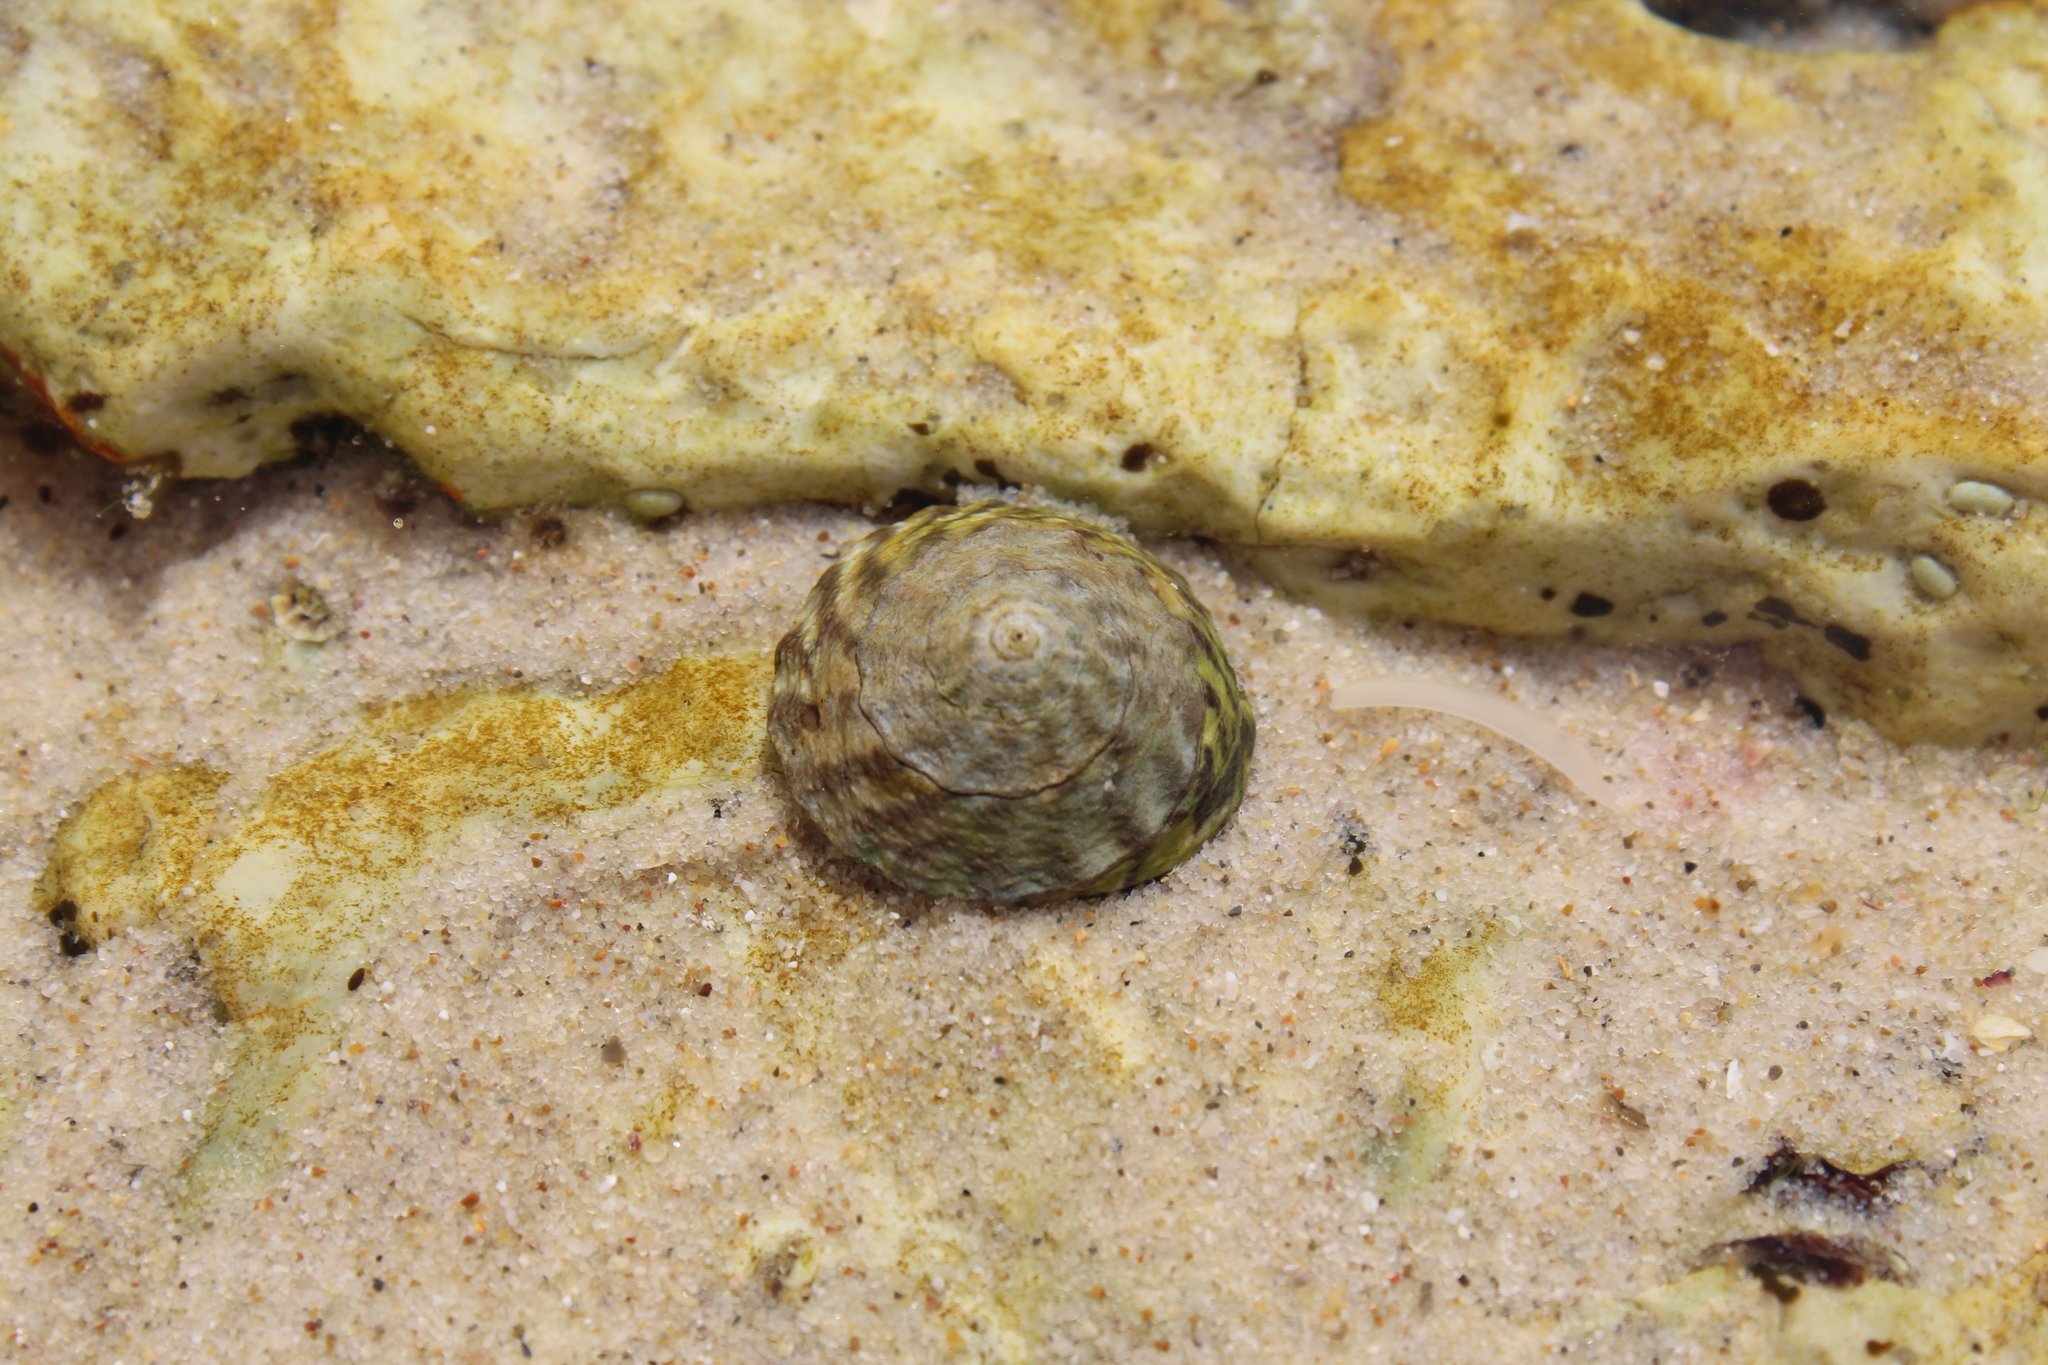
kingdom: Animalia
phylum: Mollusca
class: Gastropoda
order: Littorinimorpha
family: Littorinidae
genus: Bembicium
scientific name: Bembicium nanum
